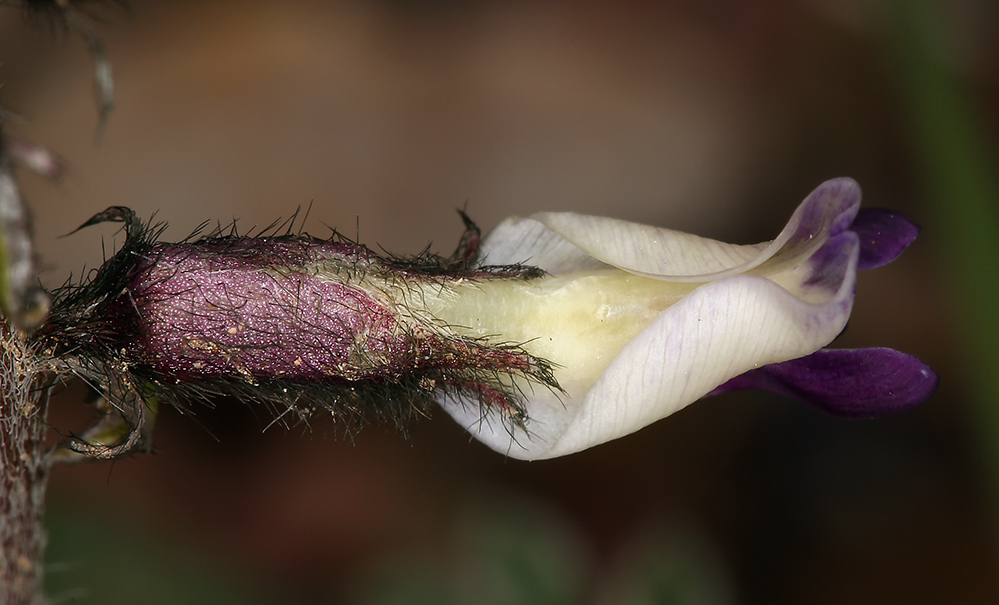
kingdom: Plantae
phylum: Tracheophyta
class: Magnoliopsida
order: Fabales
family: Fabaceae
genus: Astragalus
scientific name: Astragalus layneae
